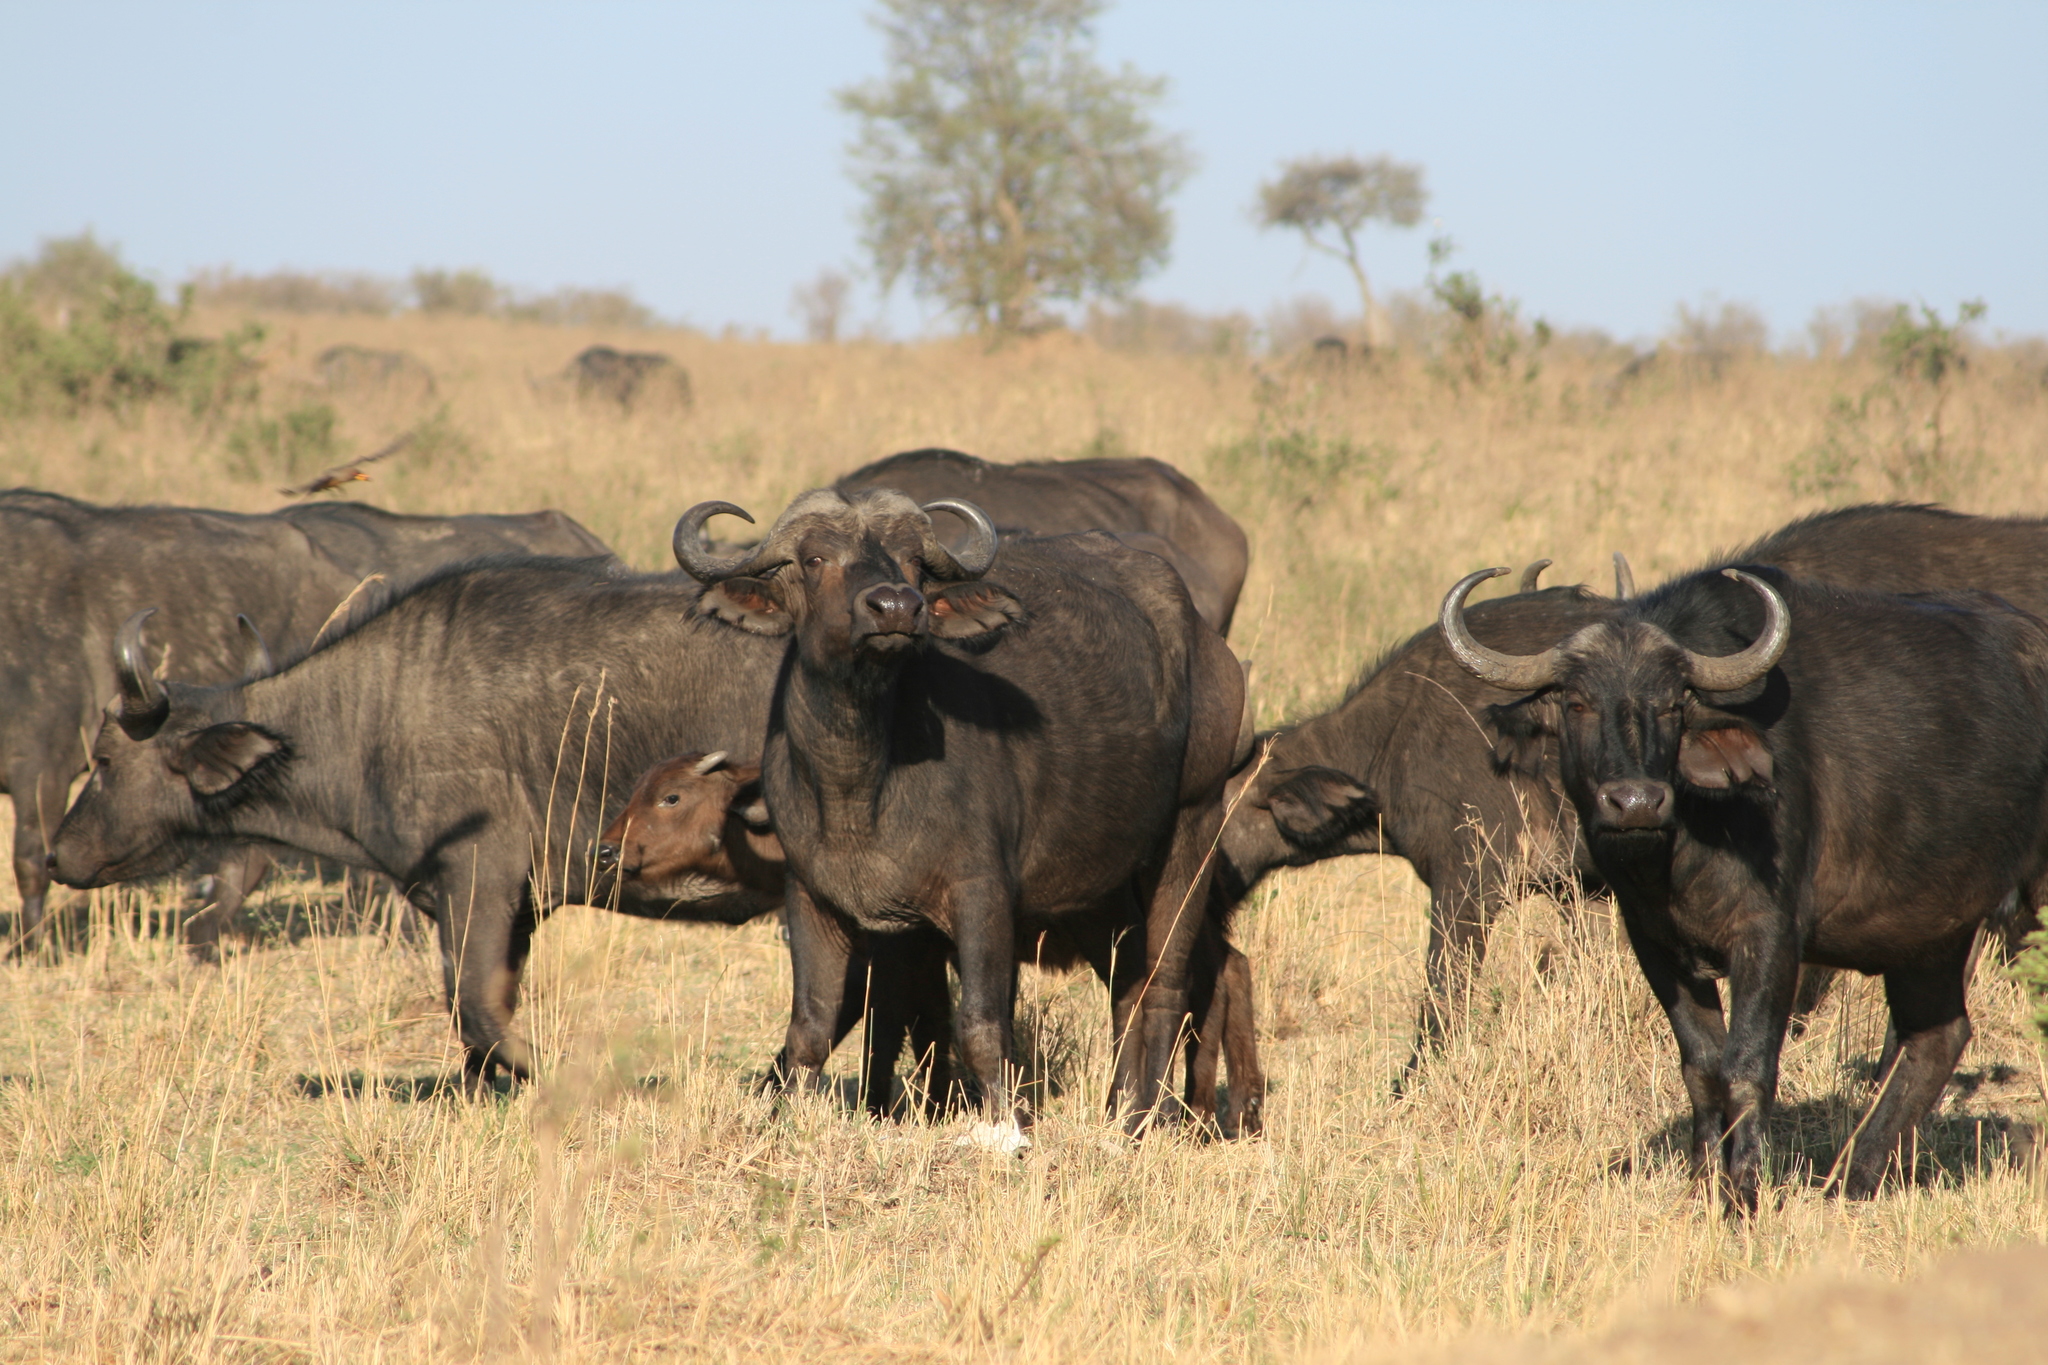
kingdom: Animalia
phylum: Chordata
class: Mammalia
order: Artiodactyla
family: Bovidae
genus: Syncerus
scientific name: Syncerus caffer
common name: African buffalo
